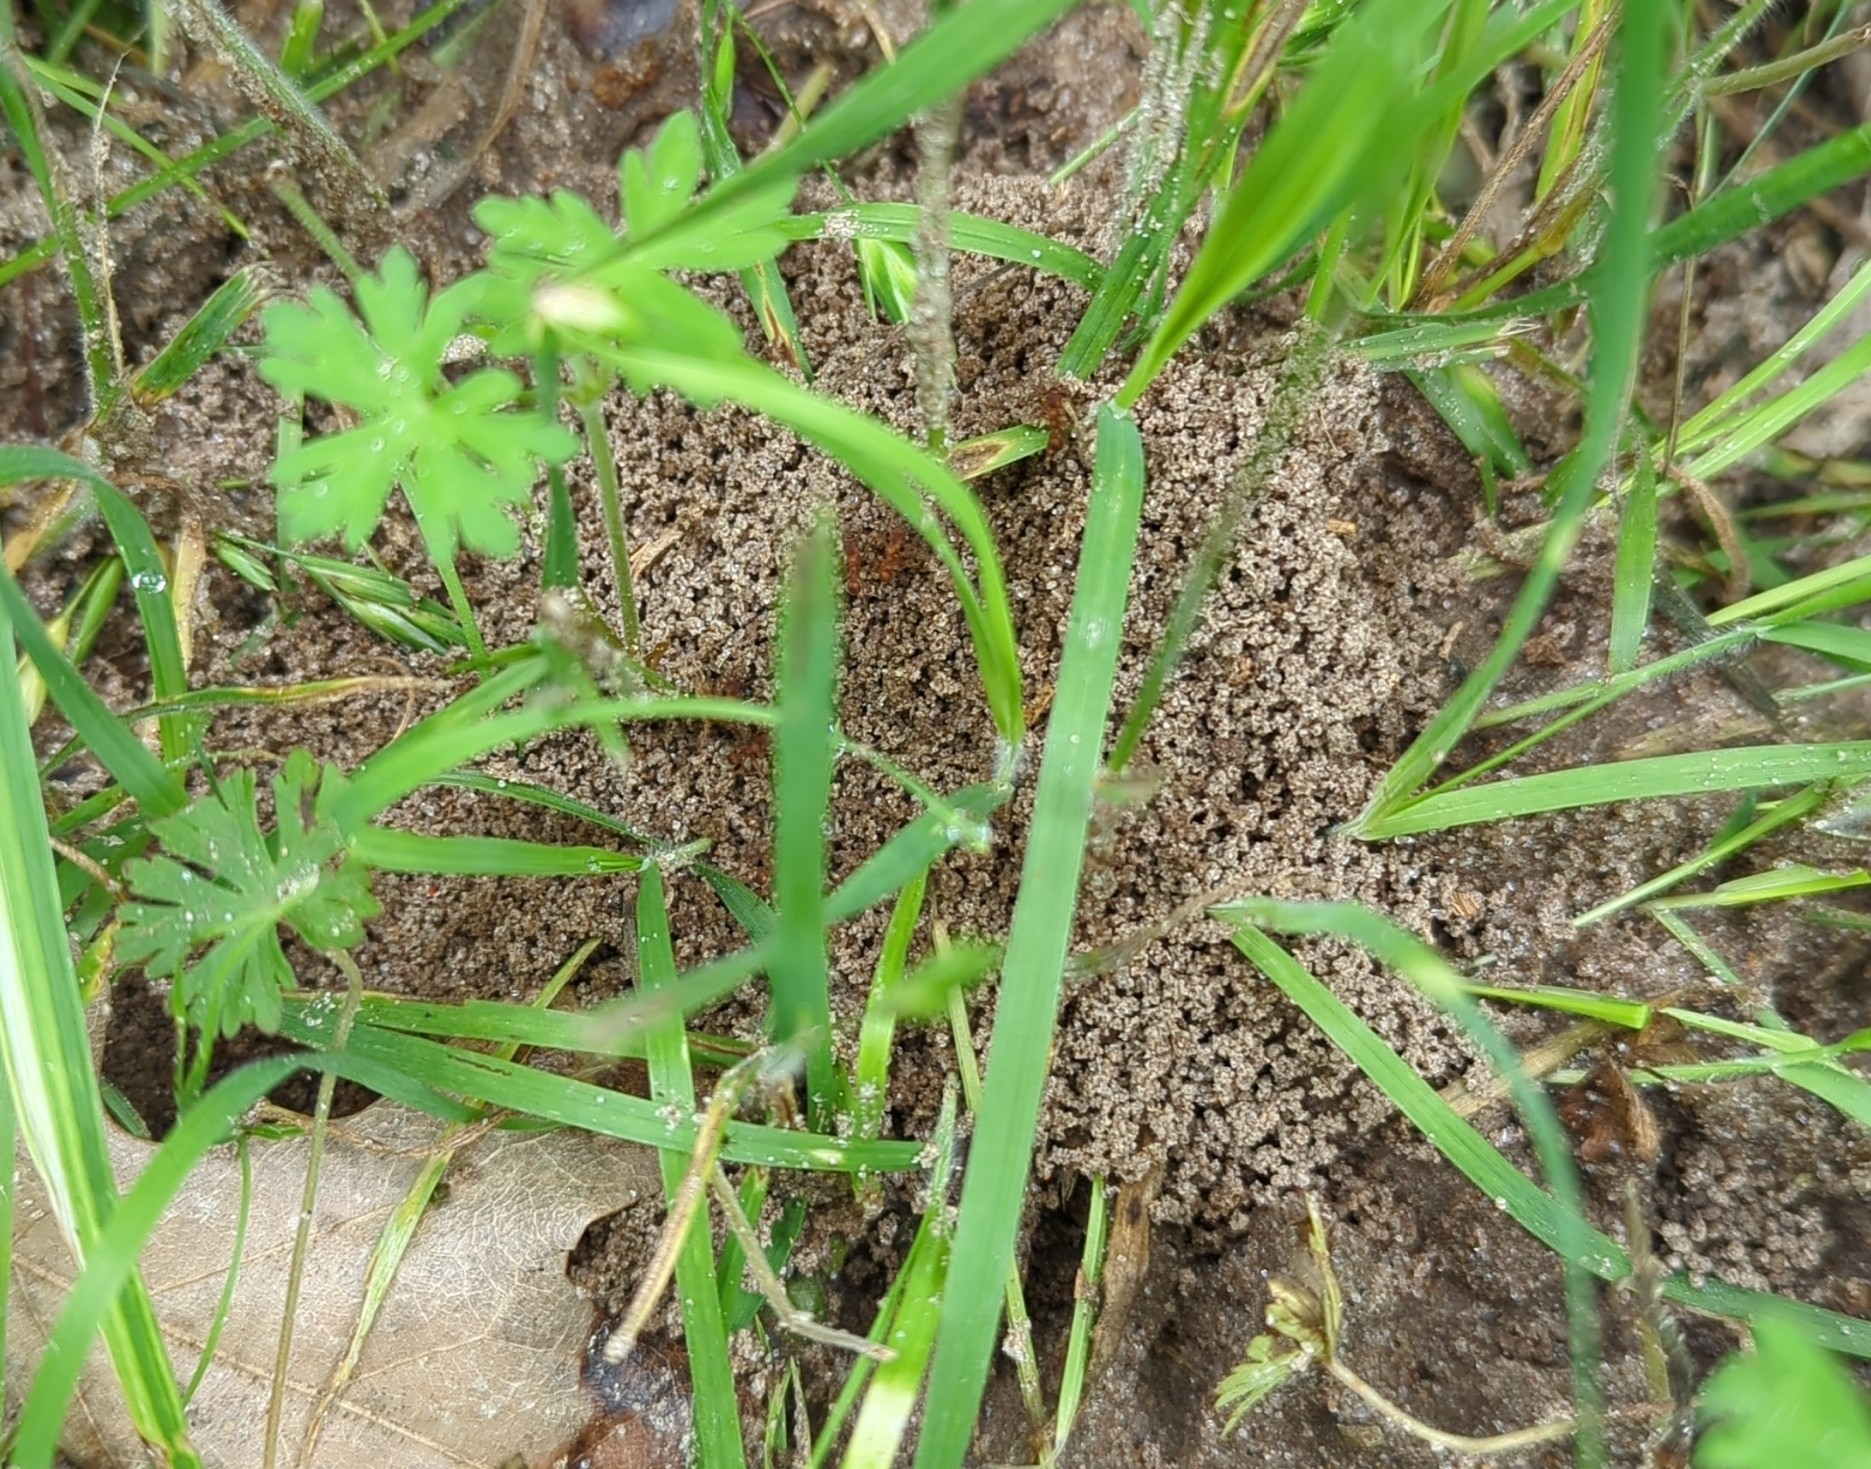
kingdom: Animalia
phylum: Arthropoda
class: Insecta
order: Hymenoptera
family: Formicidae
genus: Trachymyrmex
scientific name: Trachymyrmex septentrionalis
